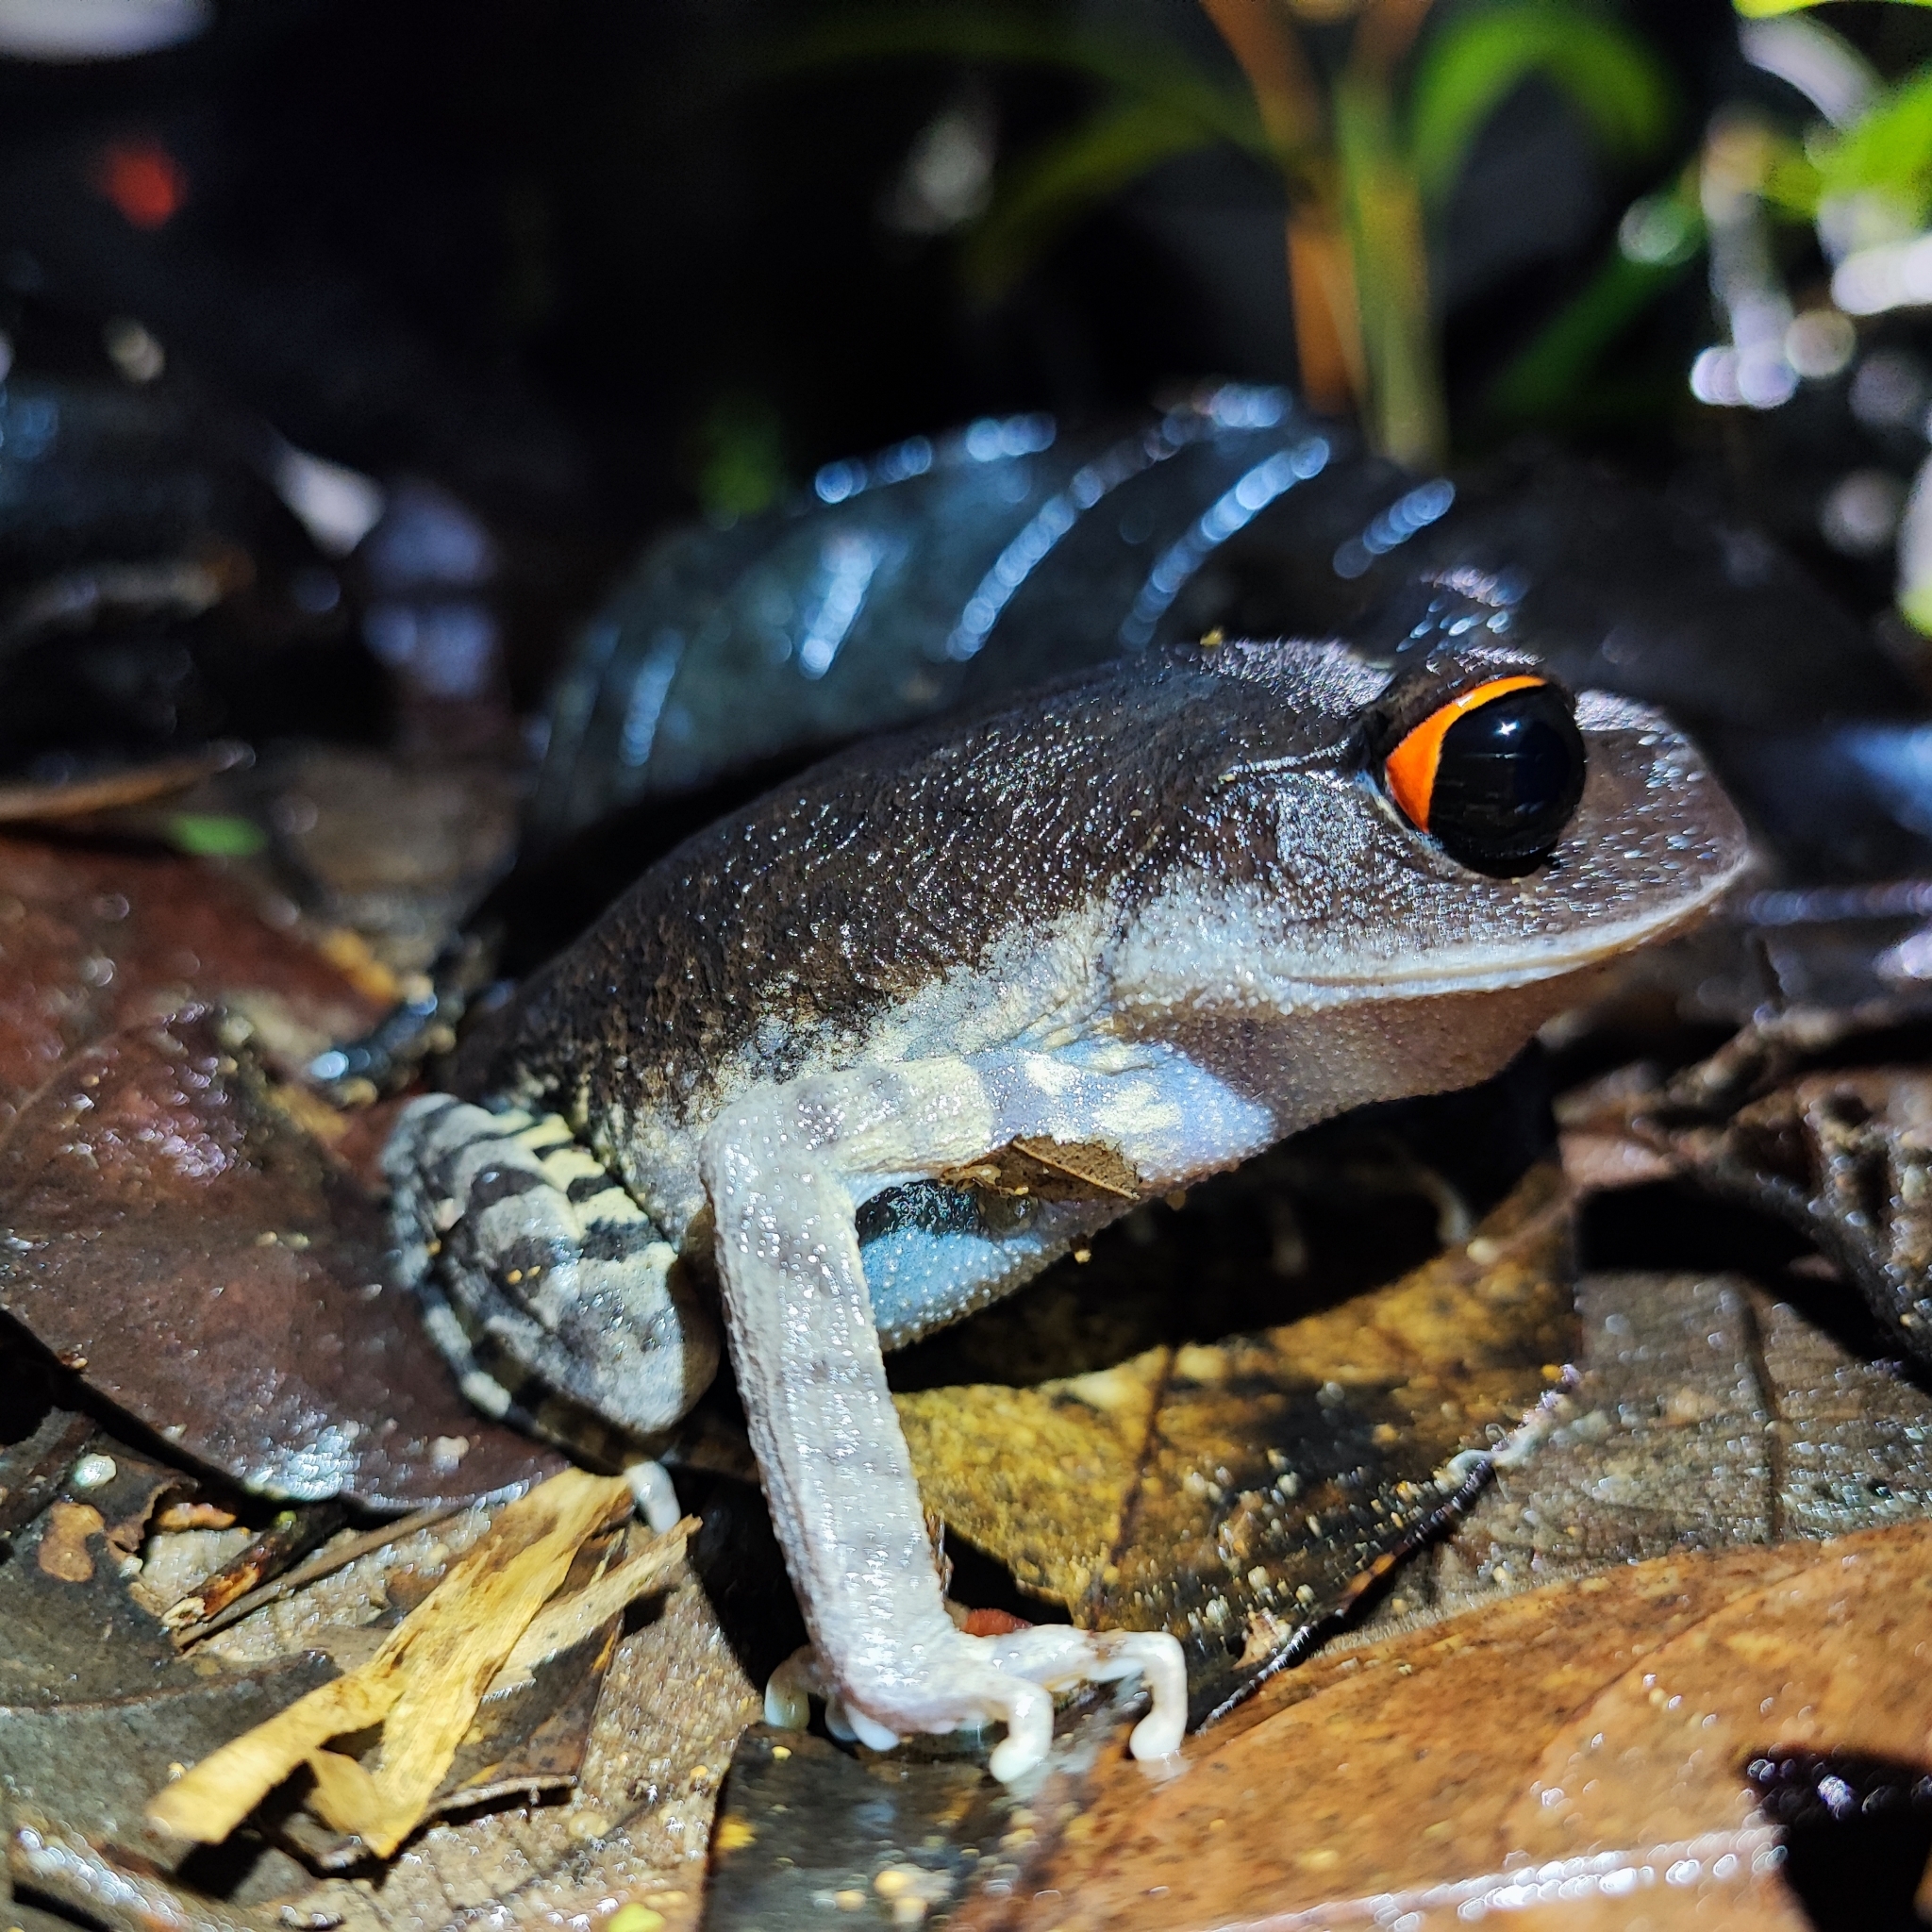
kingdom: Animalia
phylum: Chordata
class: Amphibia
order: Anura
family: Megophryidae
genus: Leptobrachium
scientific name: Leptobrachium pullum
